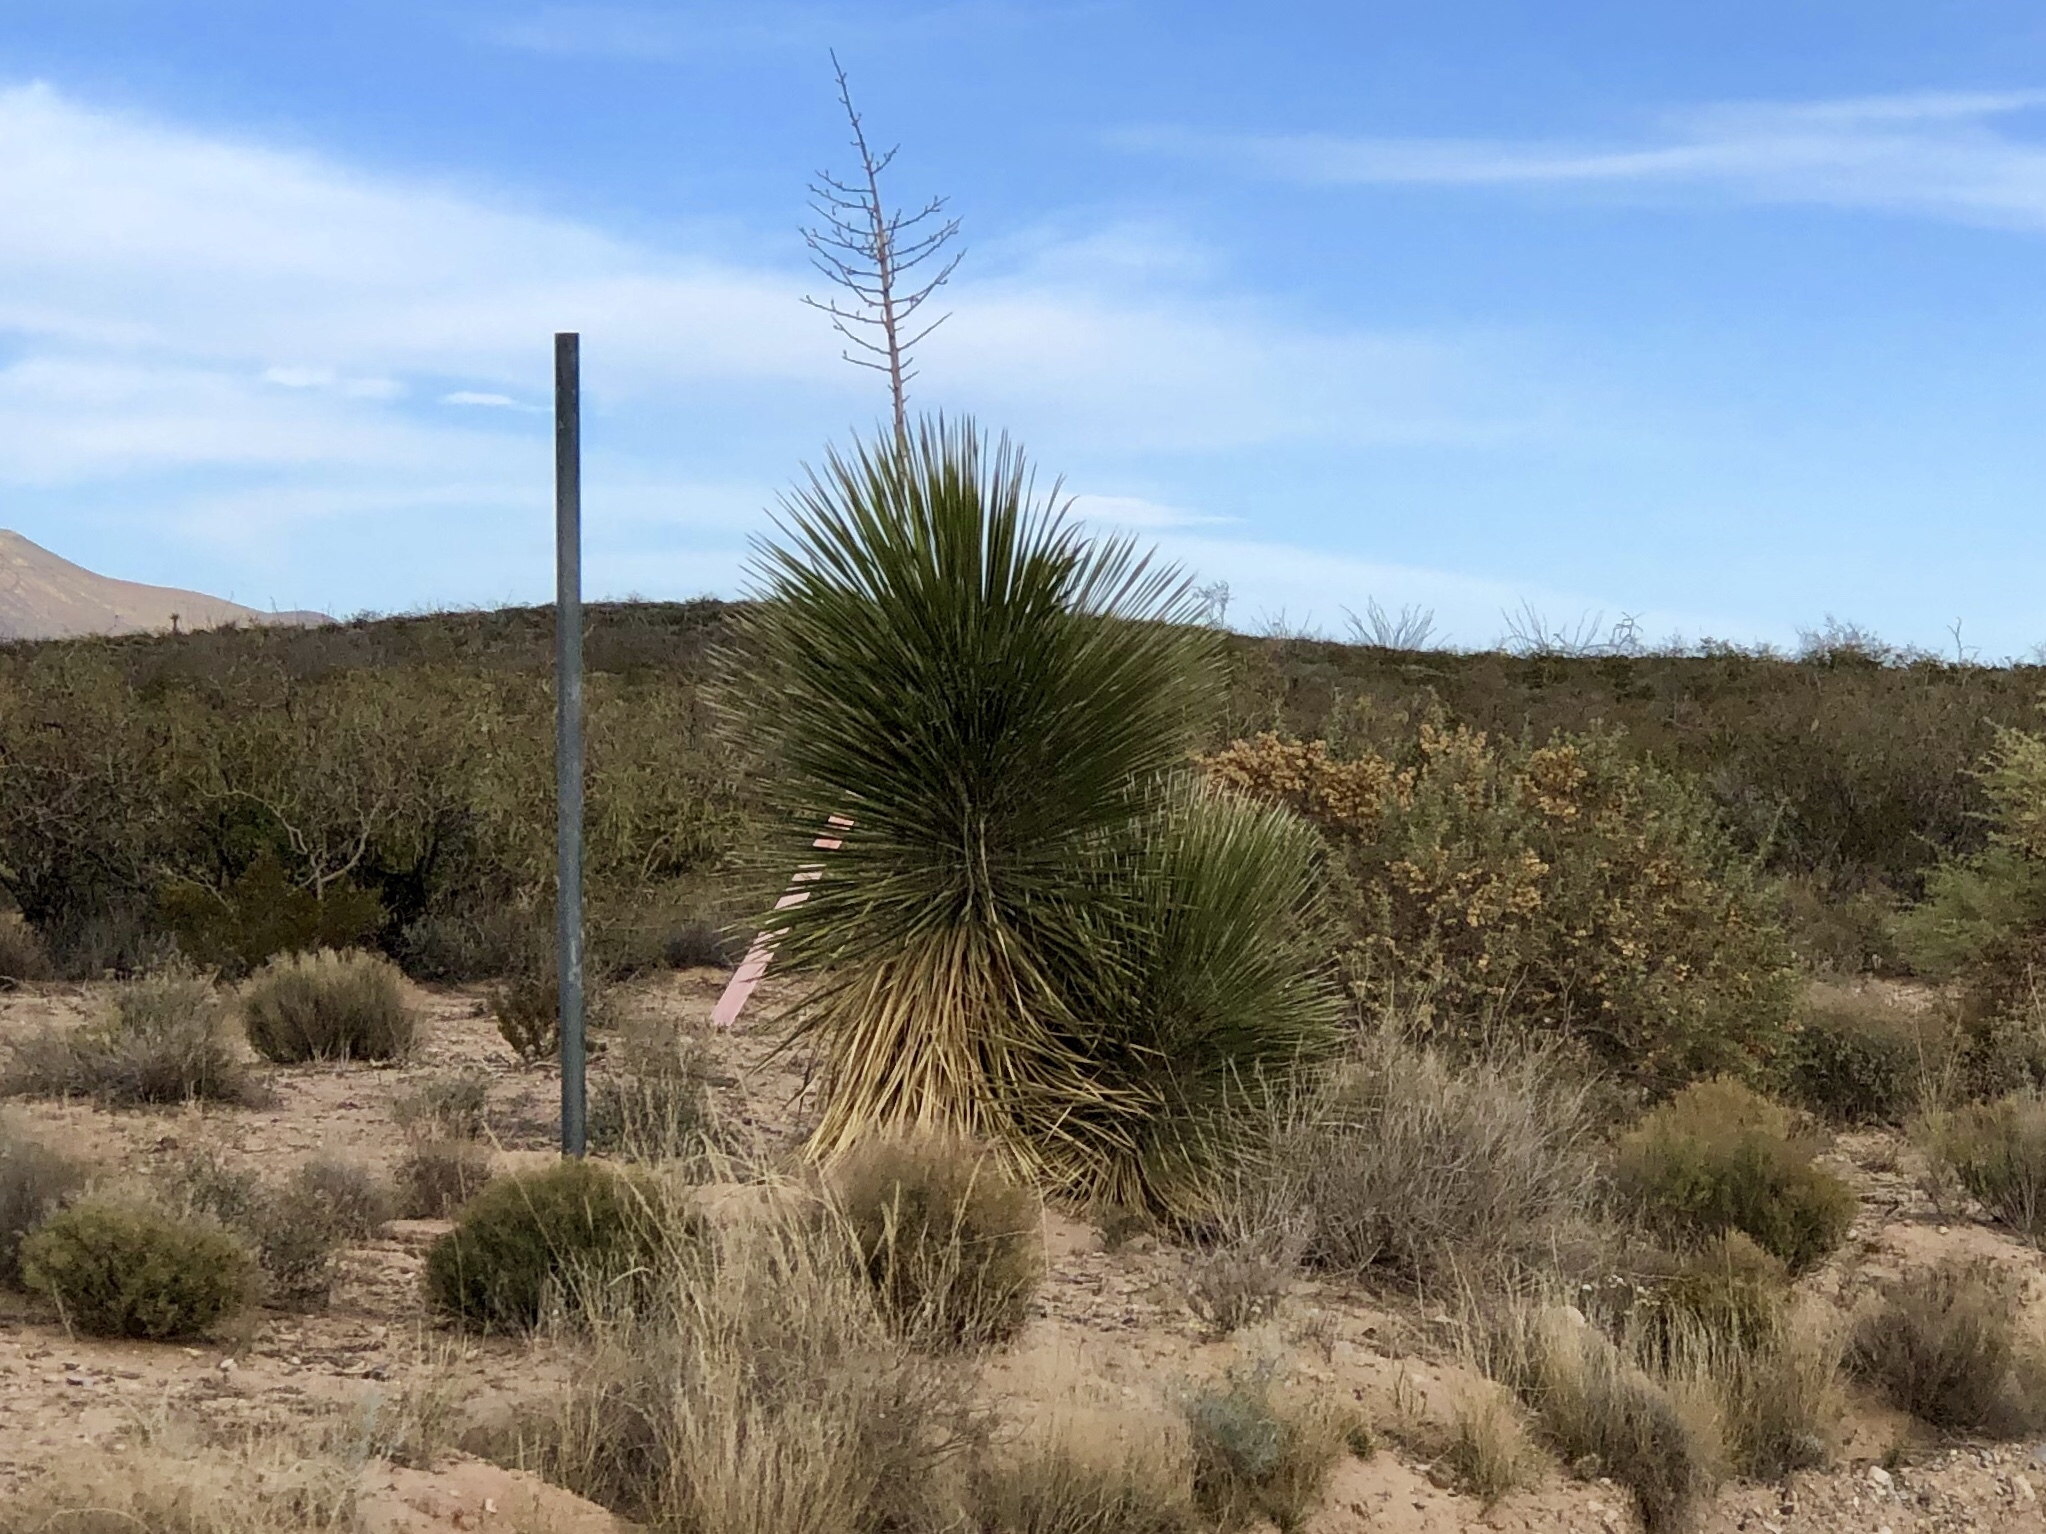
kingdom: Plantae
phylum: Tracheophyta
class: Liliopsida
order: Asparagales
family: Asparagaceae
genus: Yucca
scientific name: Yucca elata
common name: Palmella
